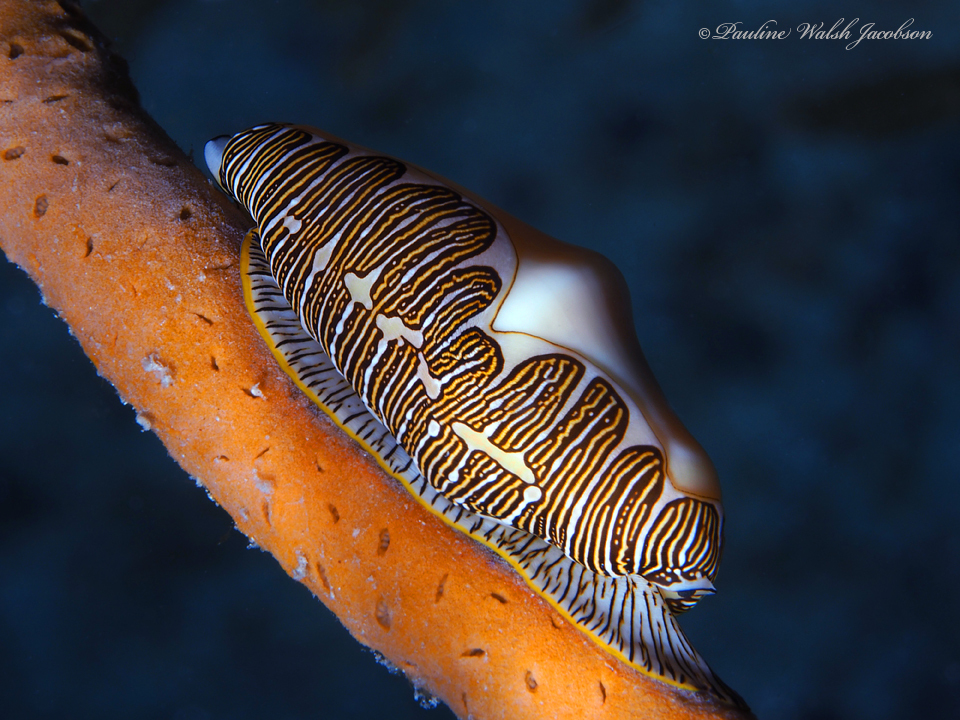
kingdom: Animalia
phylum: Mollusca
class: Gastropoda
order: Littorinimorpha
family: Ovulidae
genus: Cyphoma
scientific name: Cyphoma signatum
